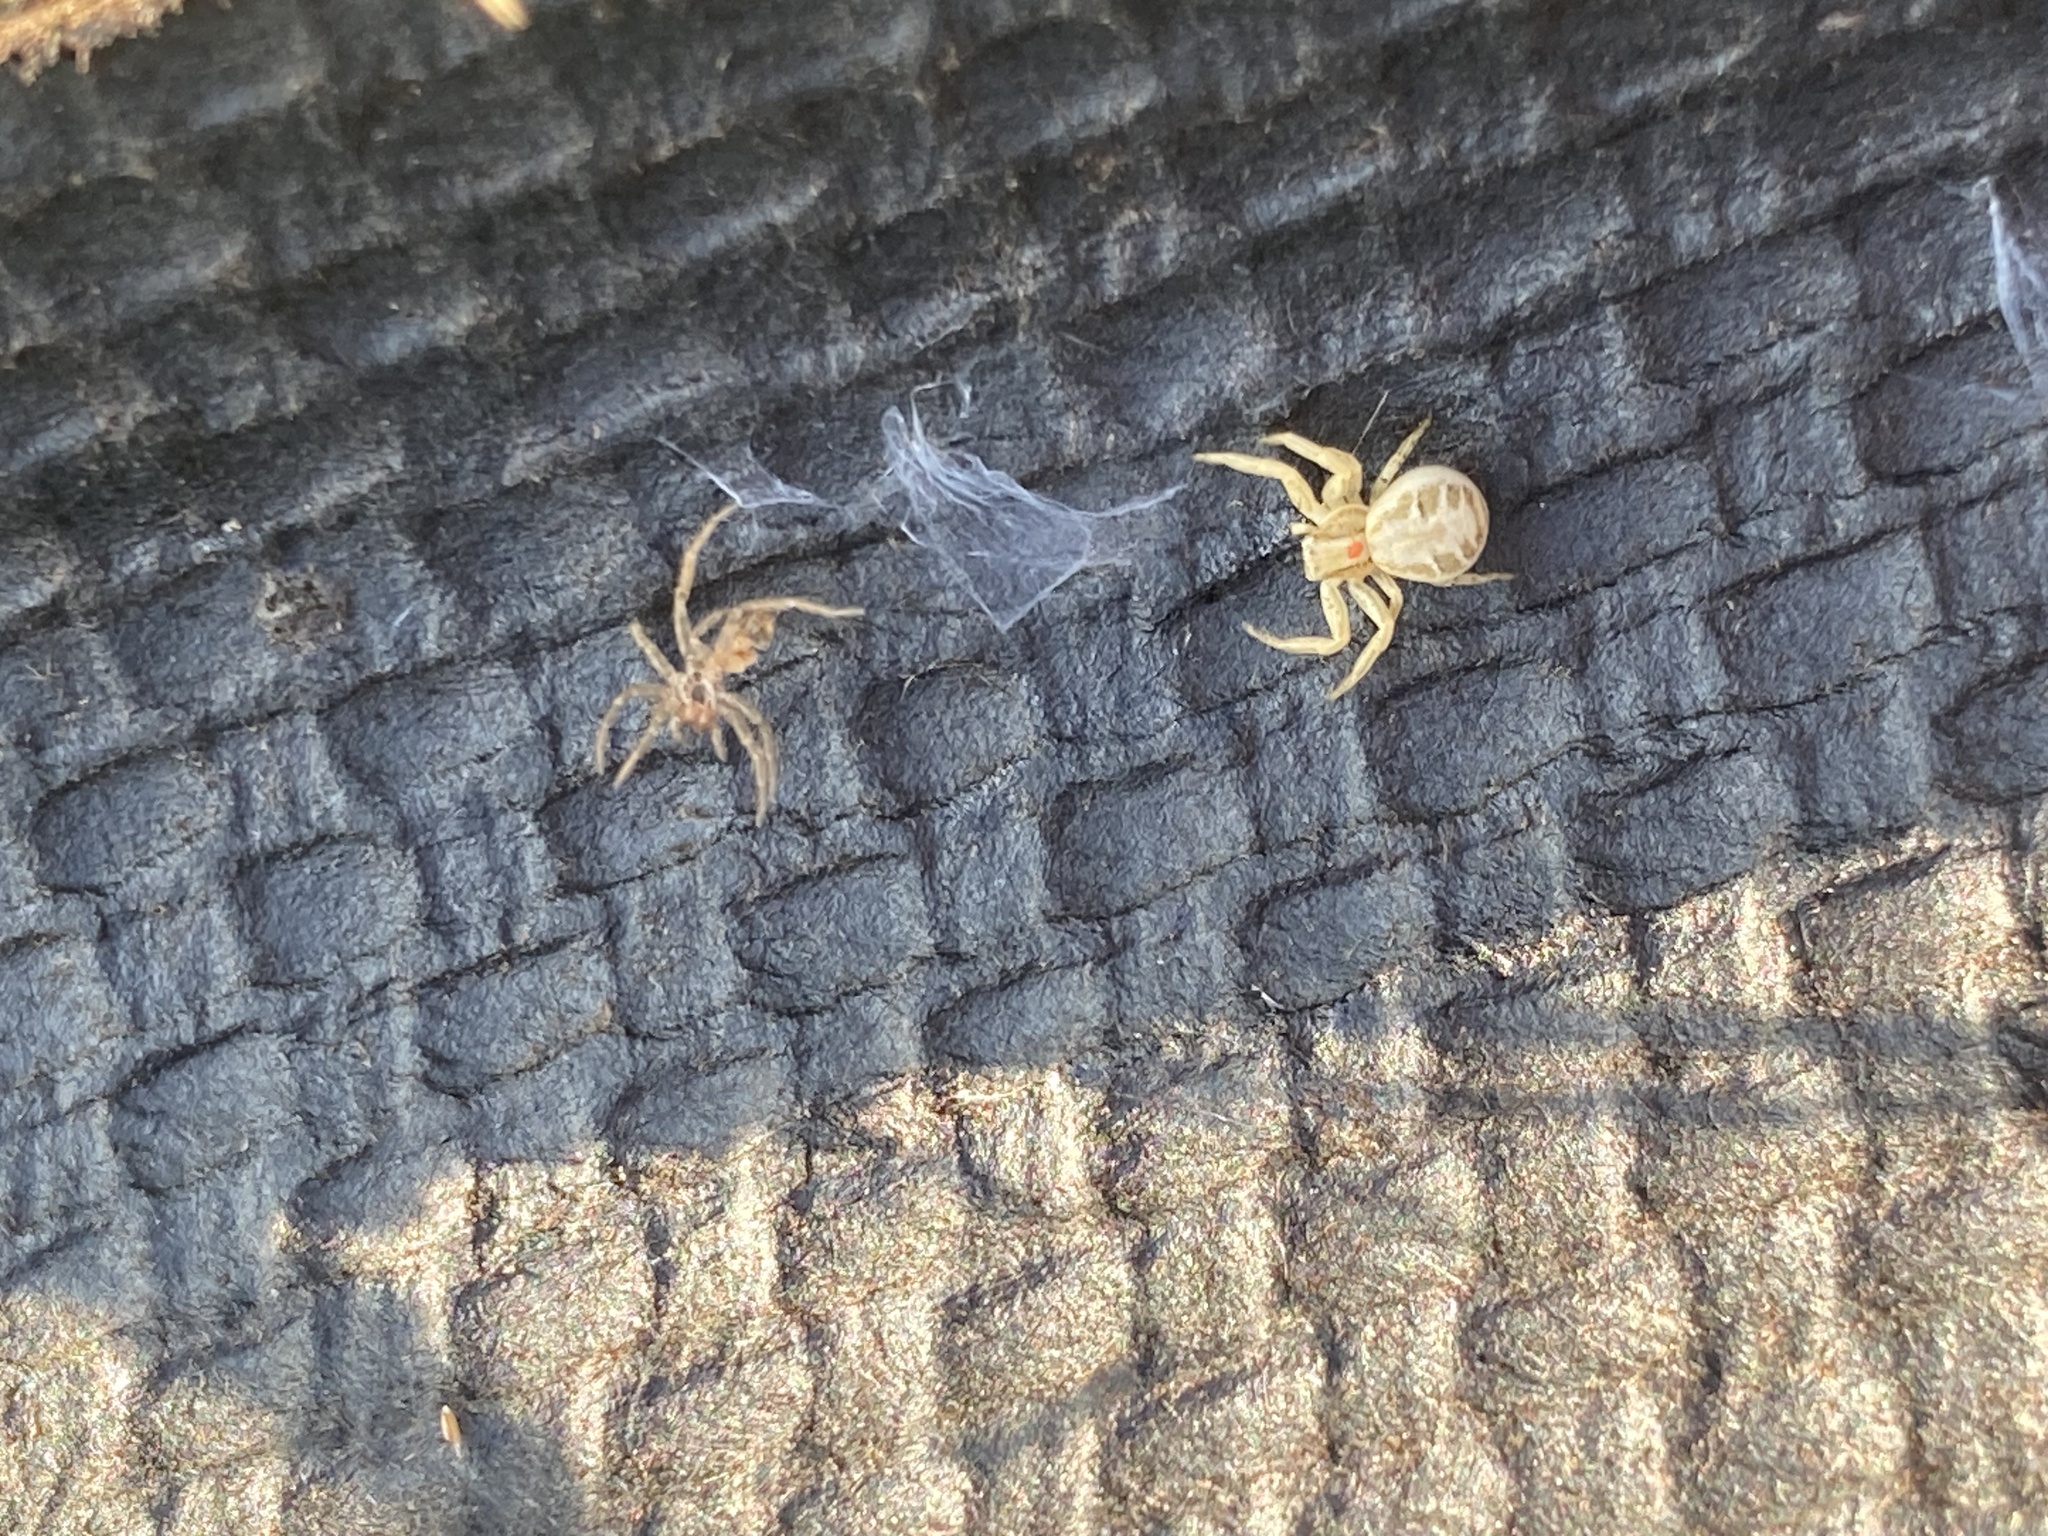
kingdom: Animalia
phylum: Arthropoda
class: Arachnida
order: Araneae
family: Thomisidae
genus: Xysticus
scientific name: Xysticus
